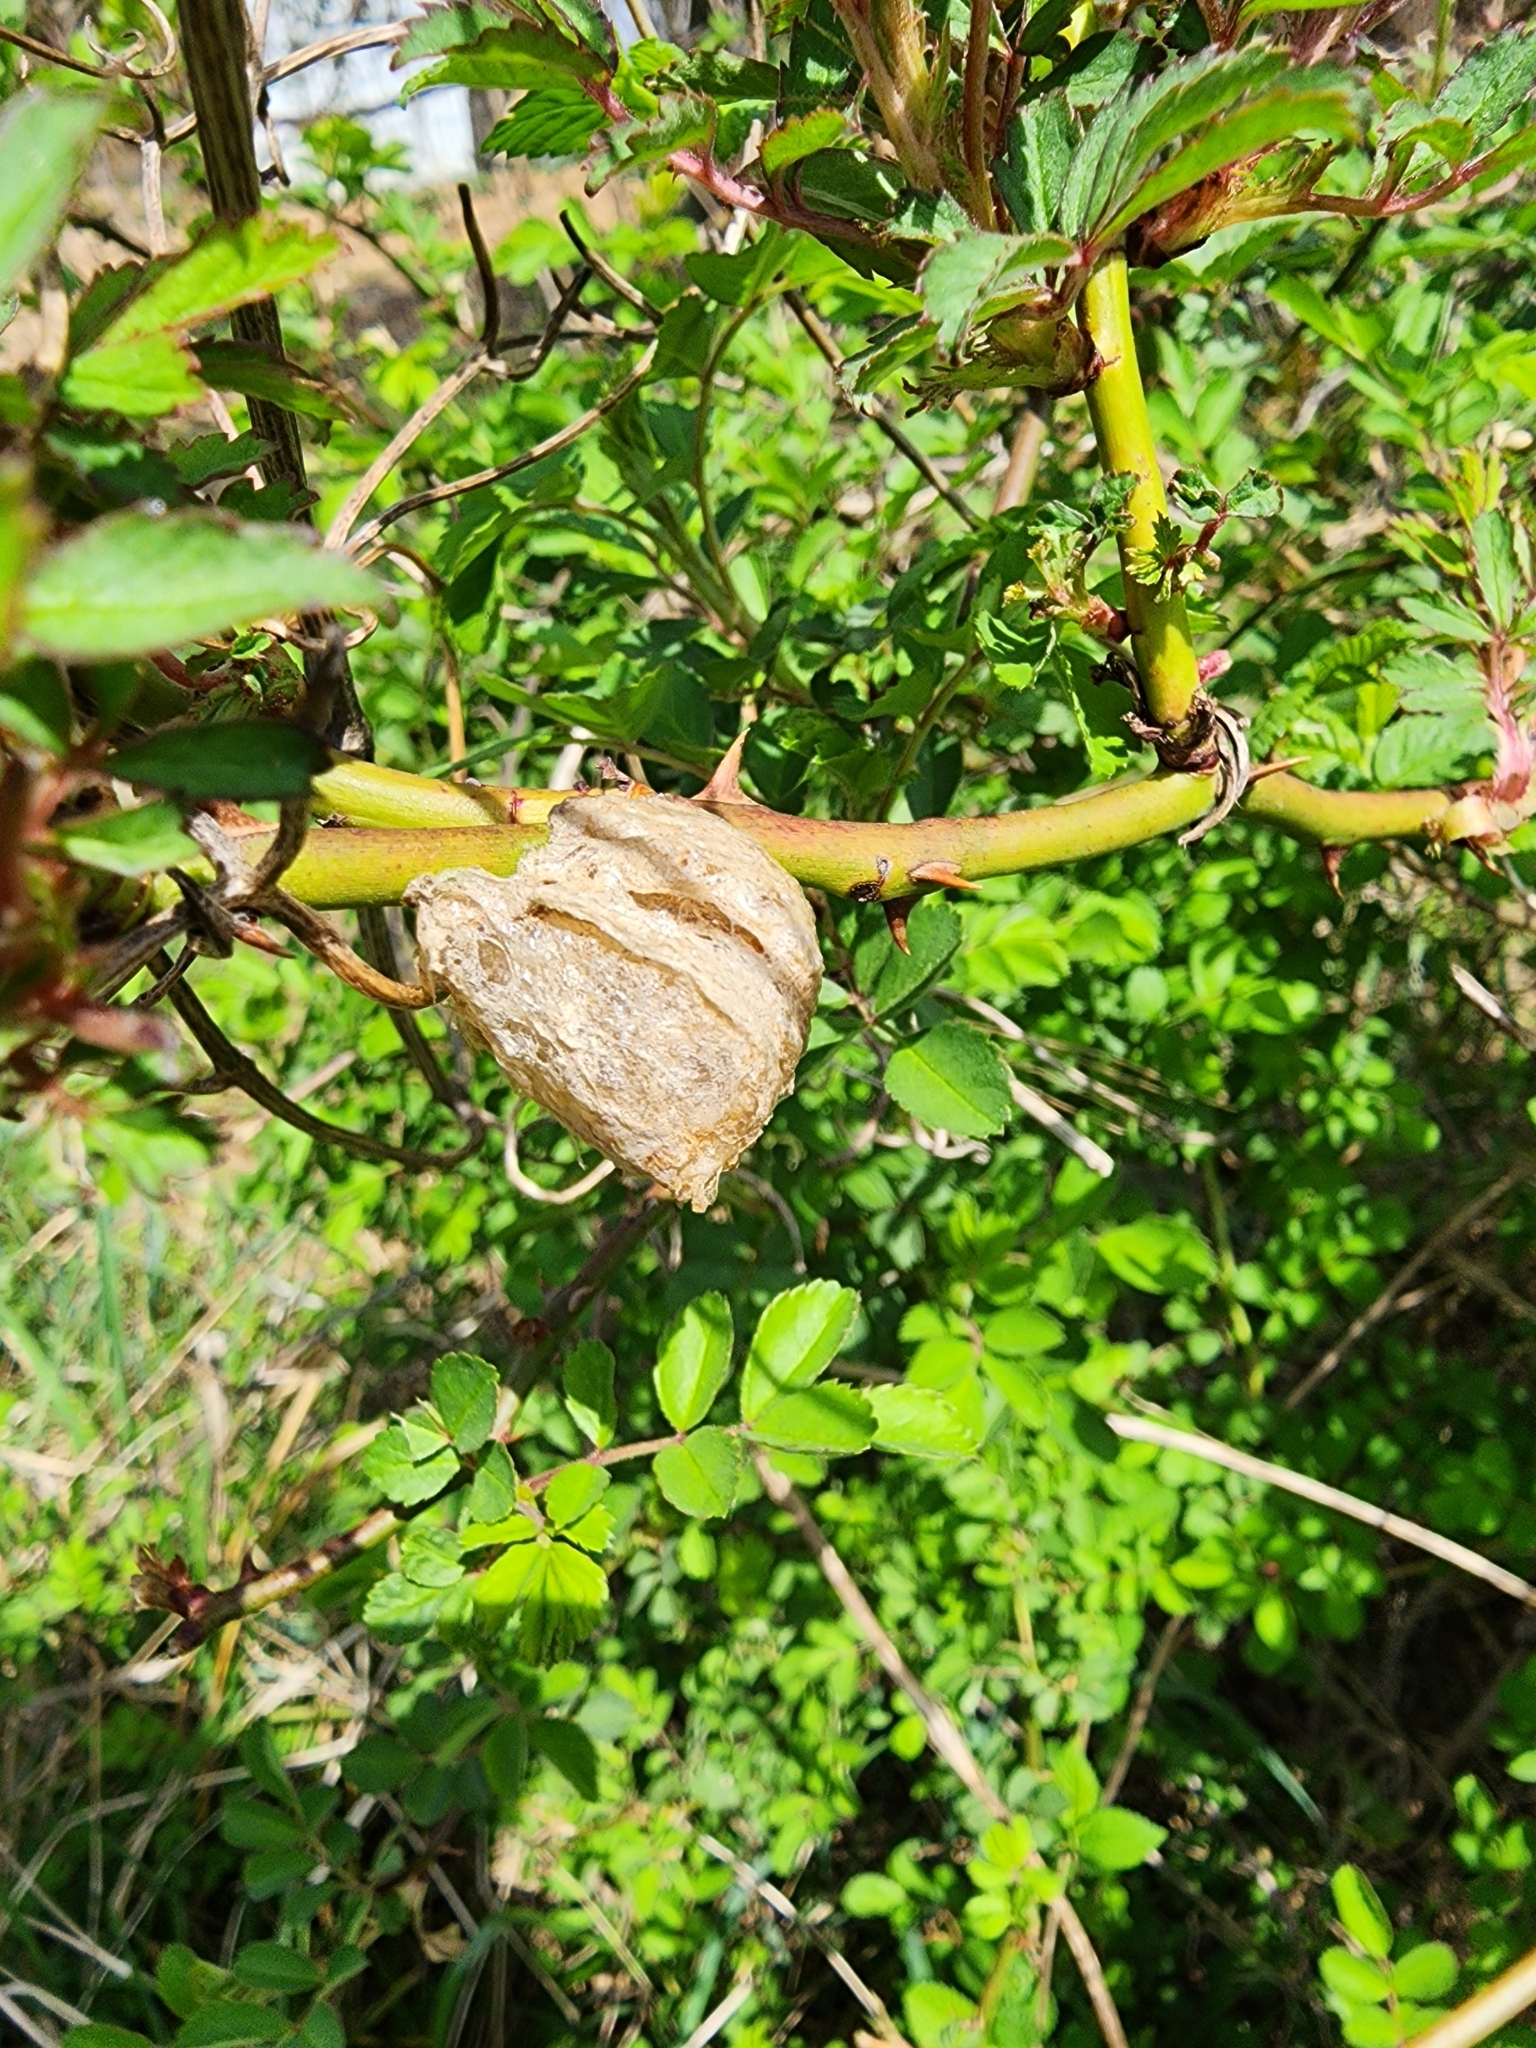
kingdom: Animalia
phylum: Arthropoda
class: Insecta
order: Mantodea
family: Mantidae
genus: Tenodera
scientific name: Tenodera sinensis
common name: Chinese mantis
